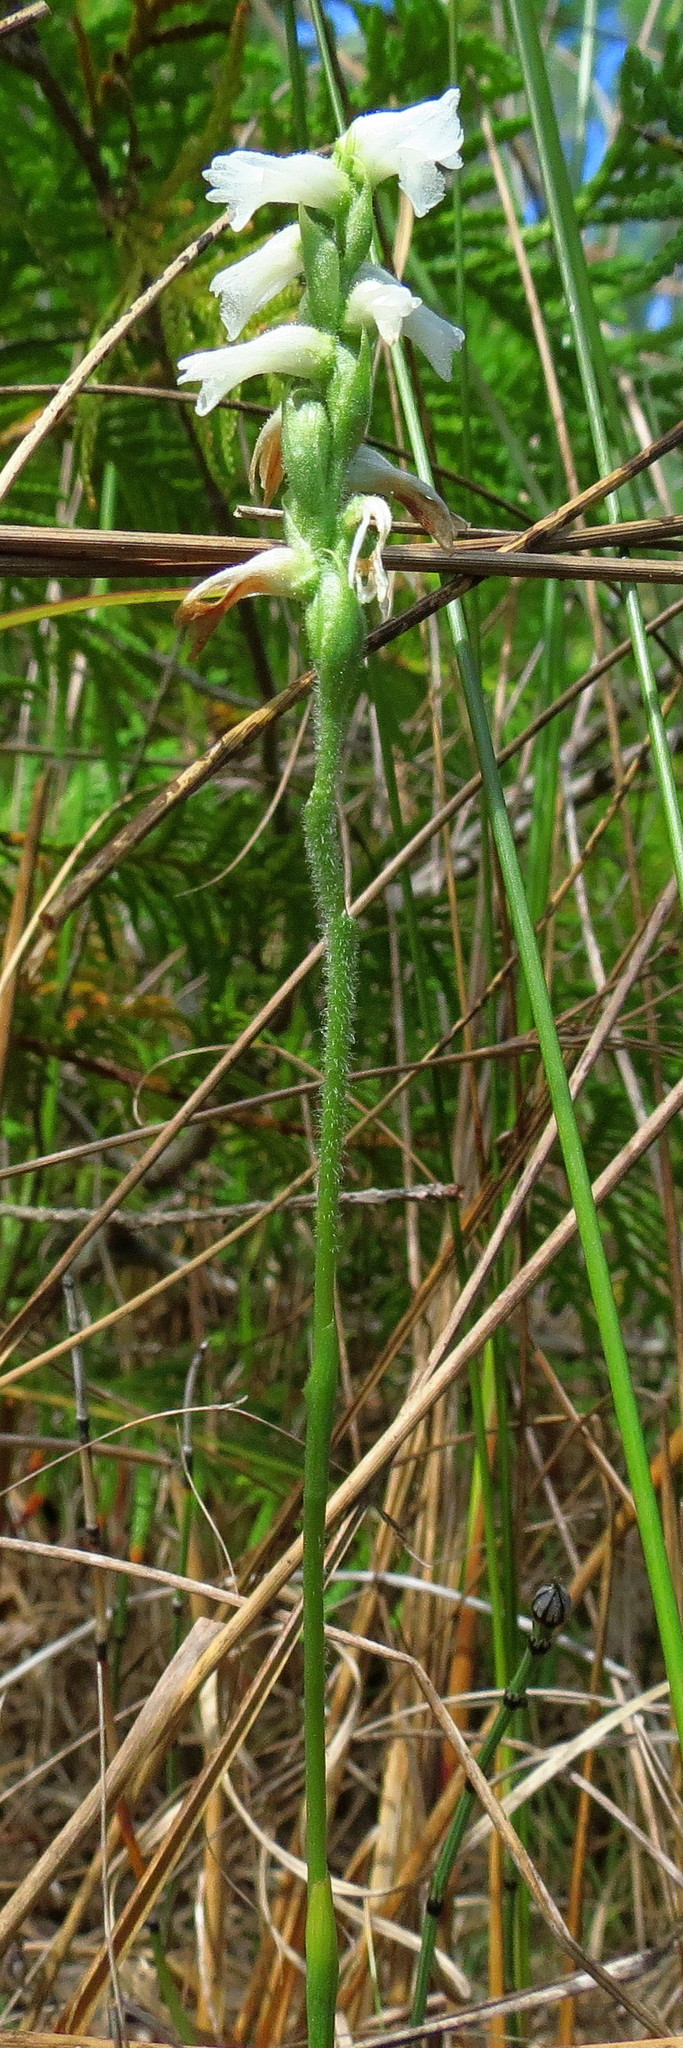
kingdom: Plantae
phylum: Tracheophyta
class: Liliopsida
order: Asparagales
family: Orchidaceae
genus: Spiranthes
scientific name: Spiranthes incurva
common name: Sphinx ladies'-tresses
